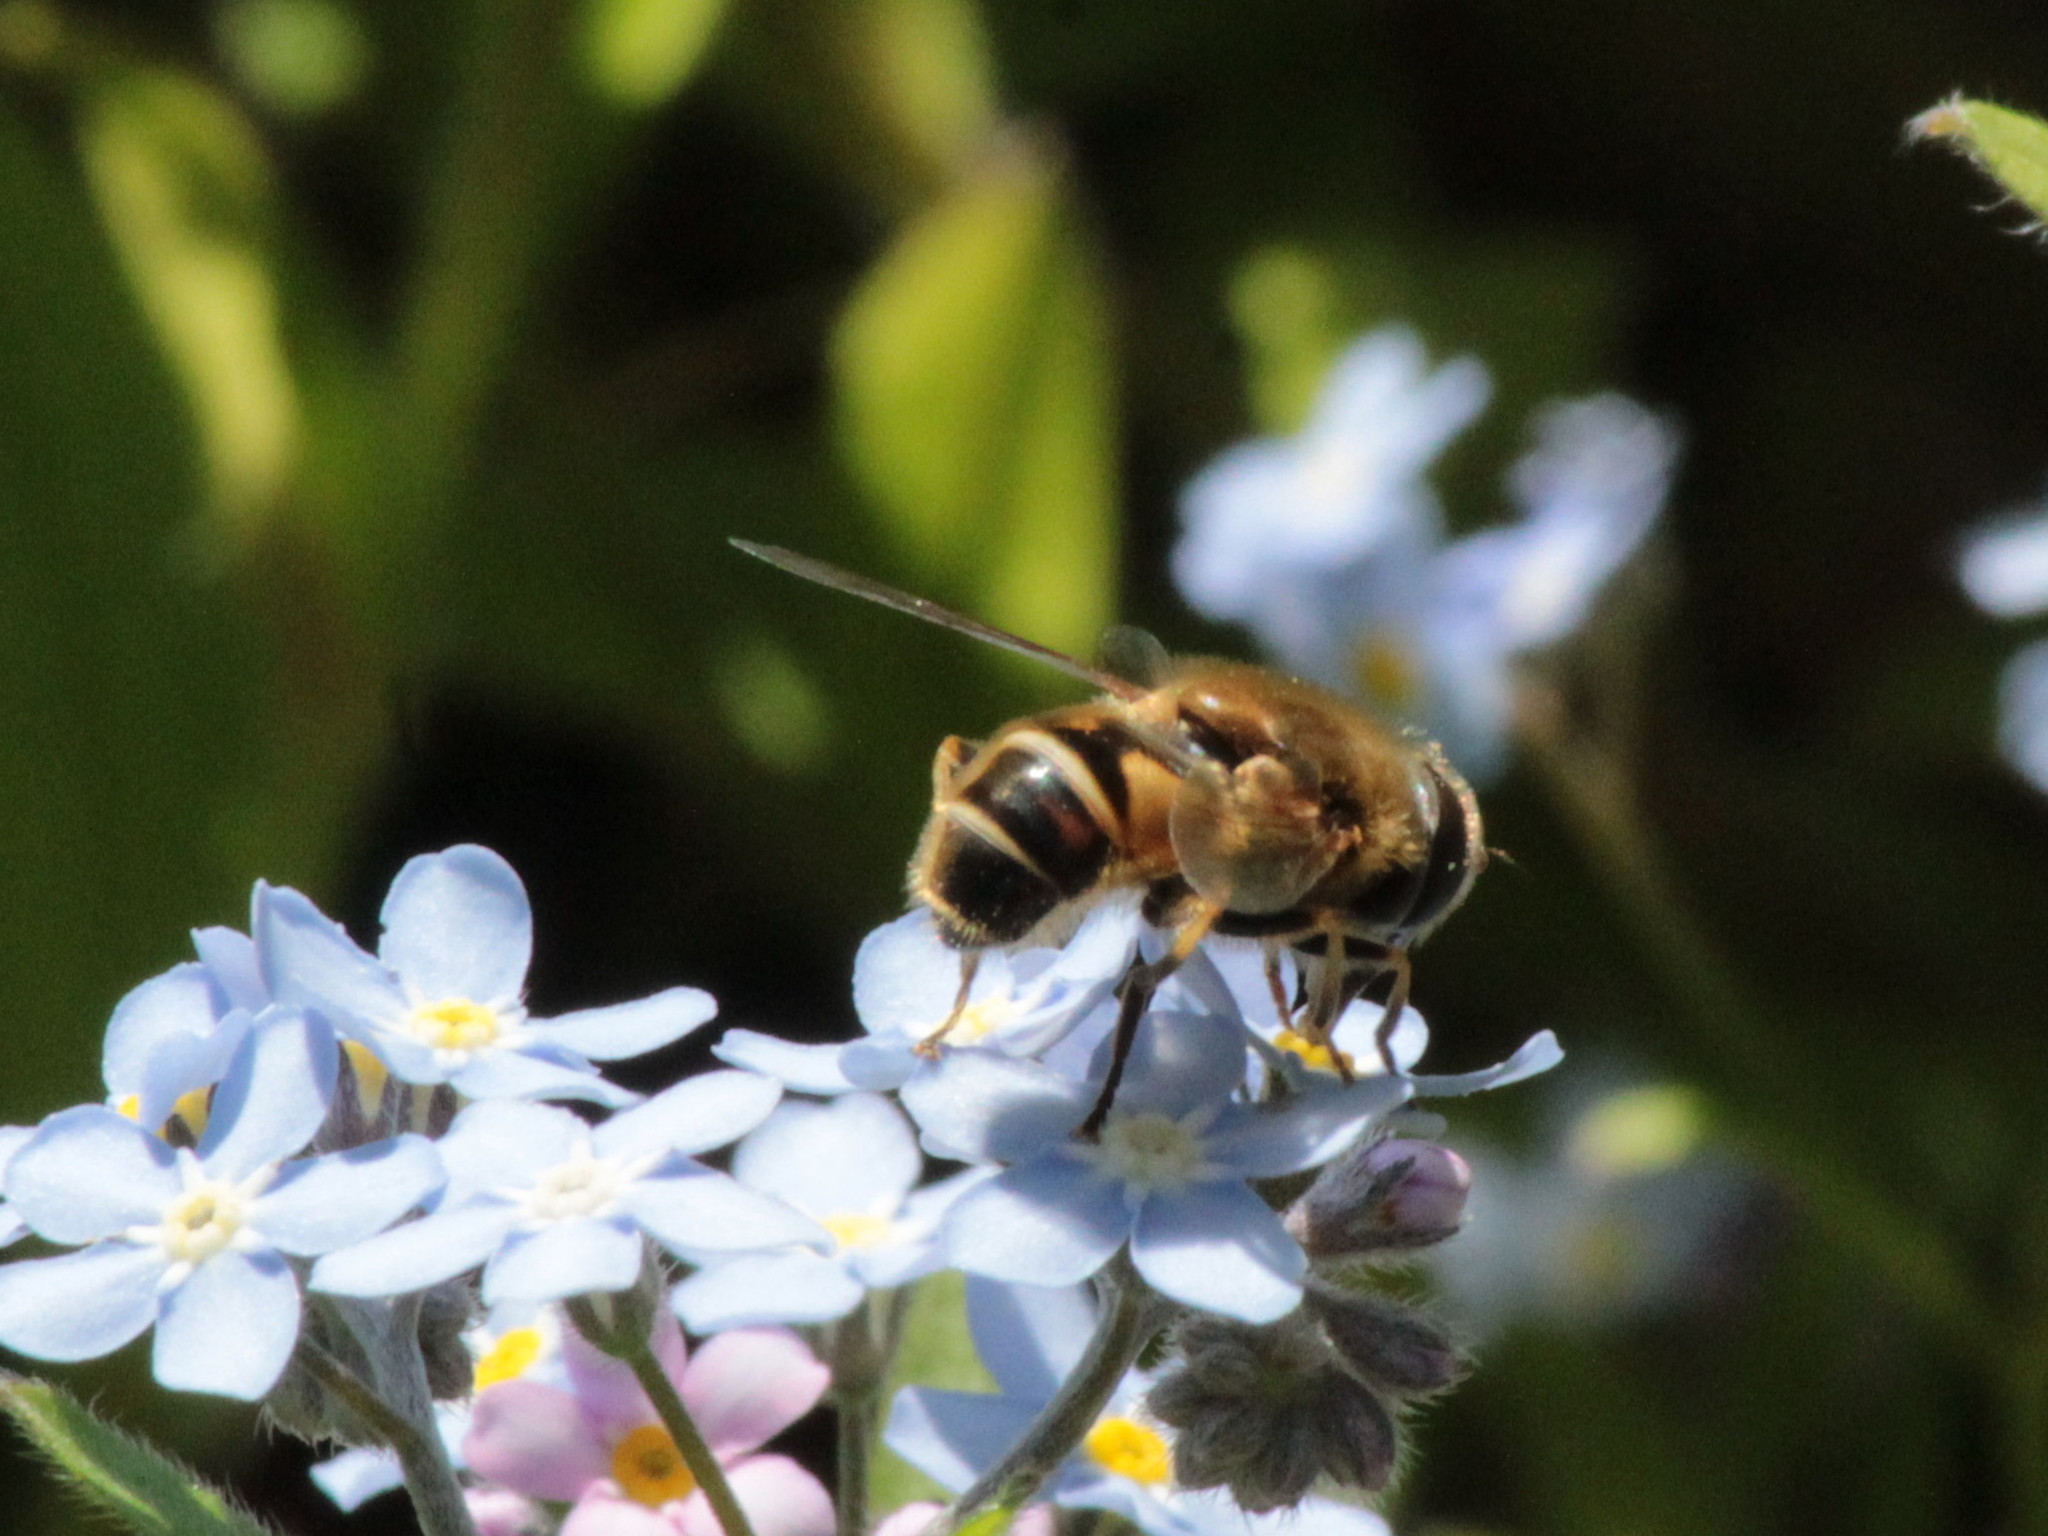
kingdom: Animalia
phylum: Arthropoda
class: Insecta
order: Diptera
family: Syrphidae
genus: Eristalis
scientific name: Eristalis nemorum
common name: Orange-spined drone fly
